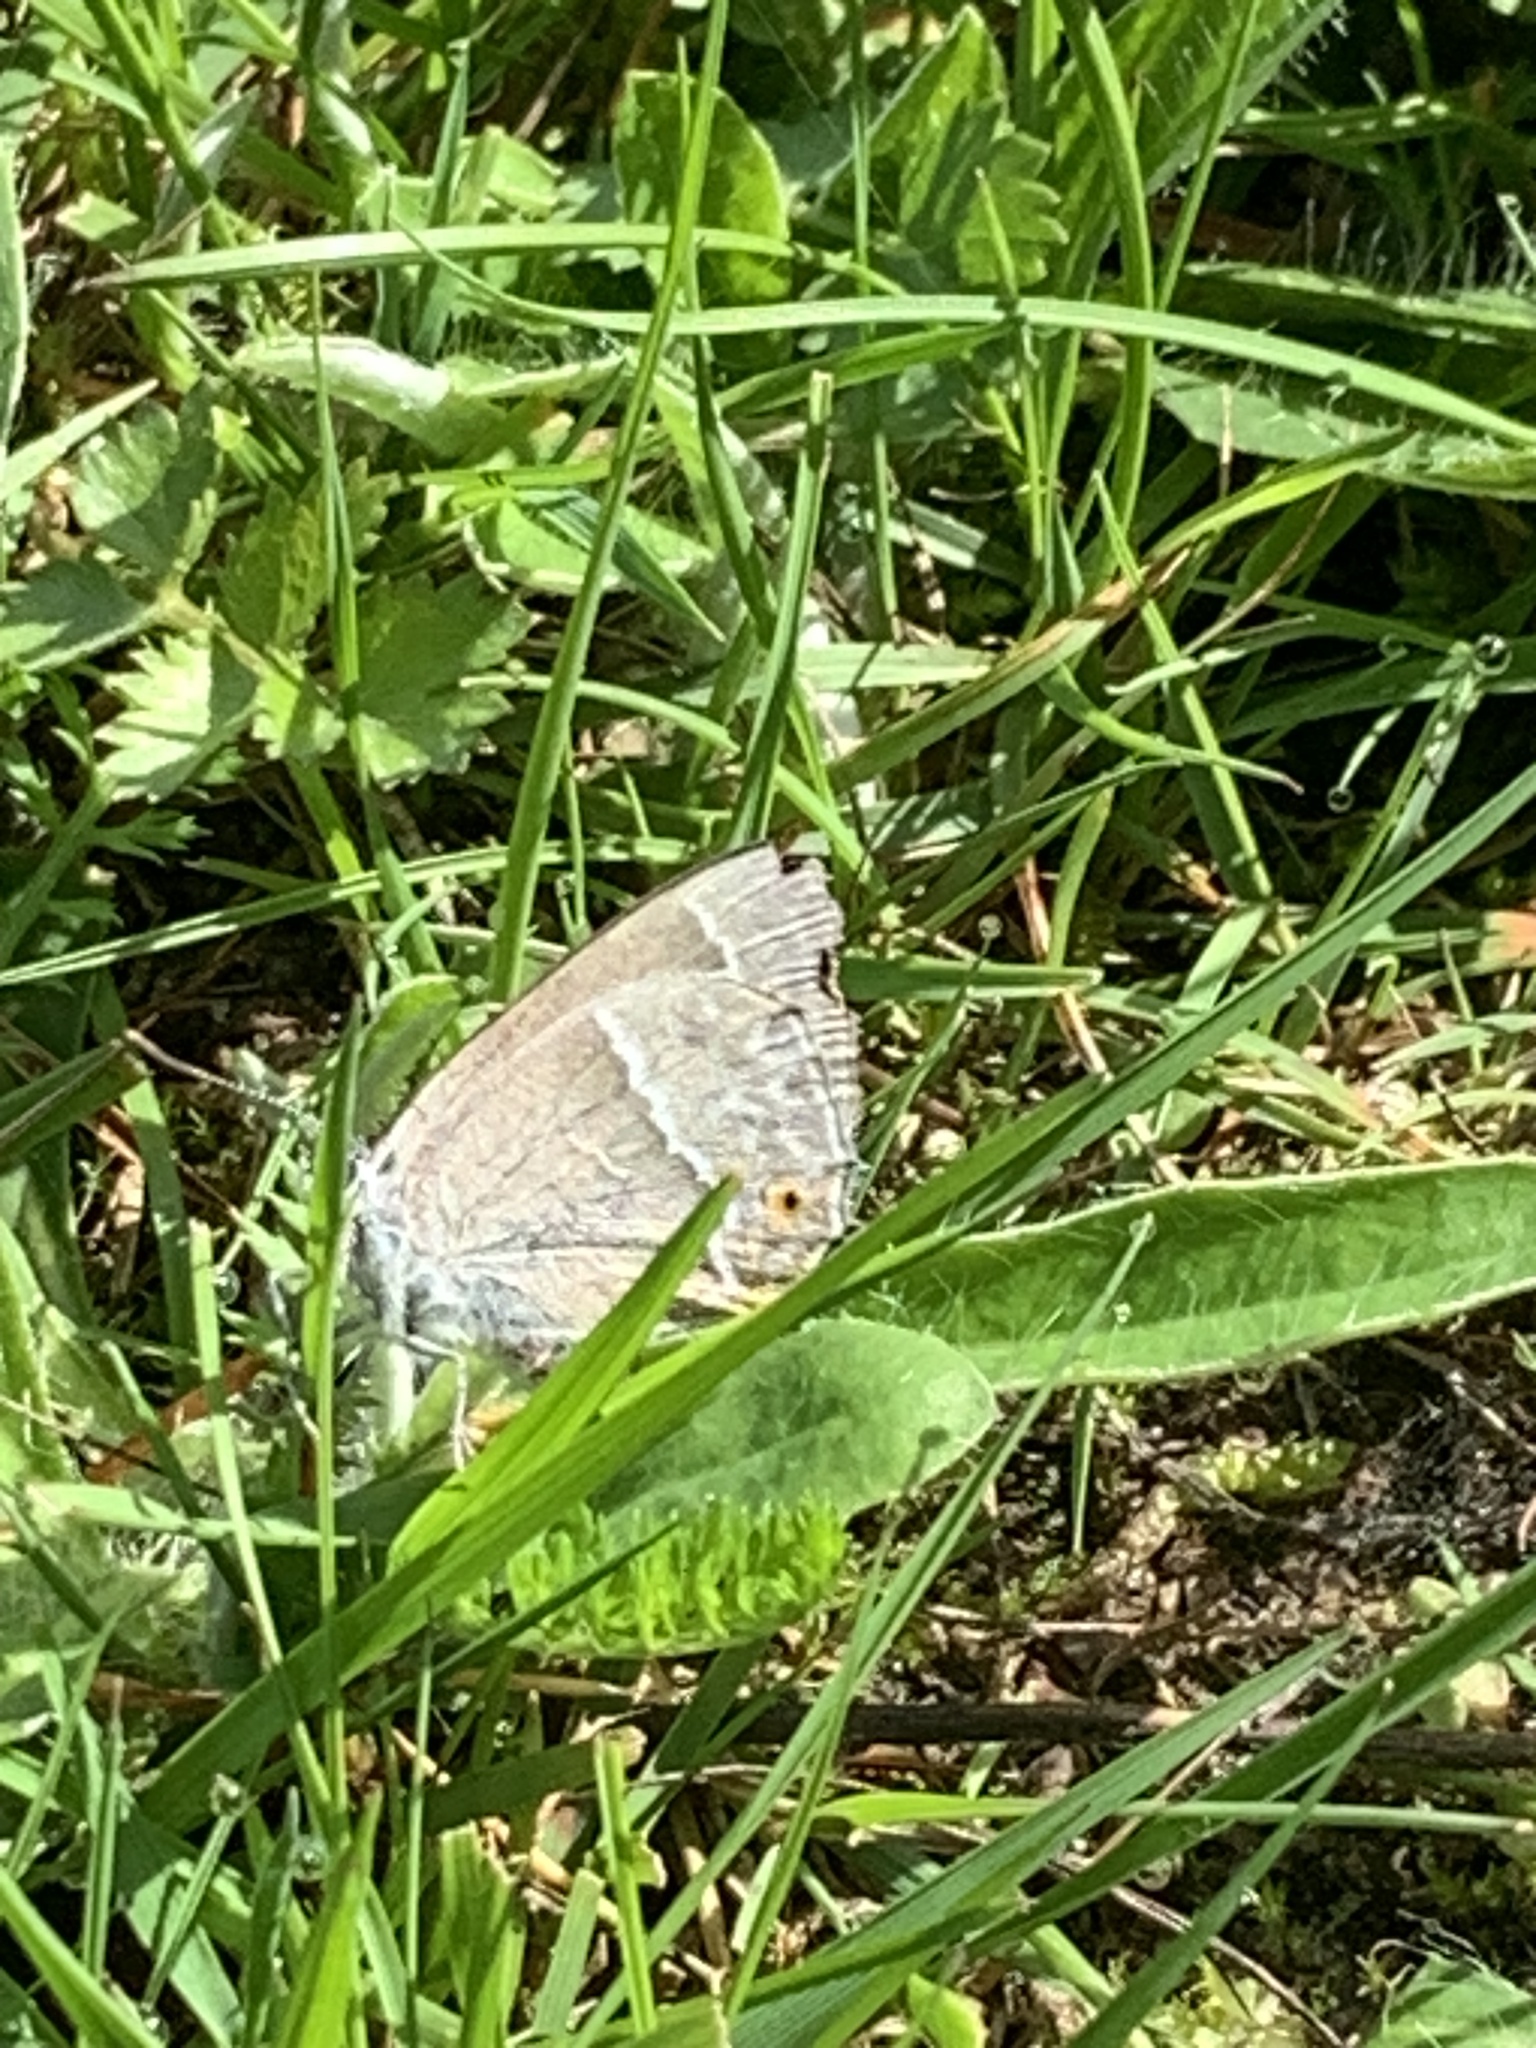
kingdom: Animalia
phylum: Arthropoda
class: Insecta
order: Lepidoptera
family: Lycaenidae
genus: Quercusia
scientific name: Quercusia quercus
